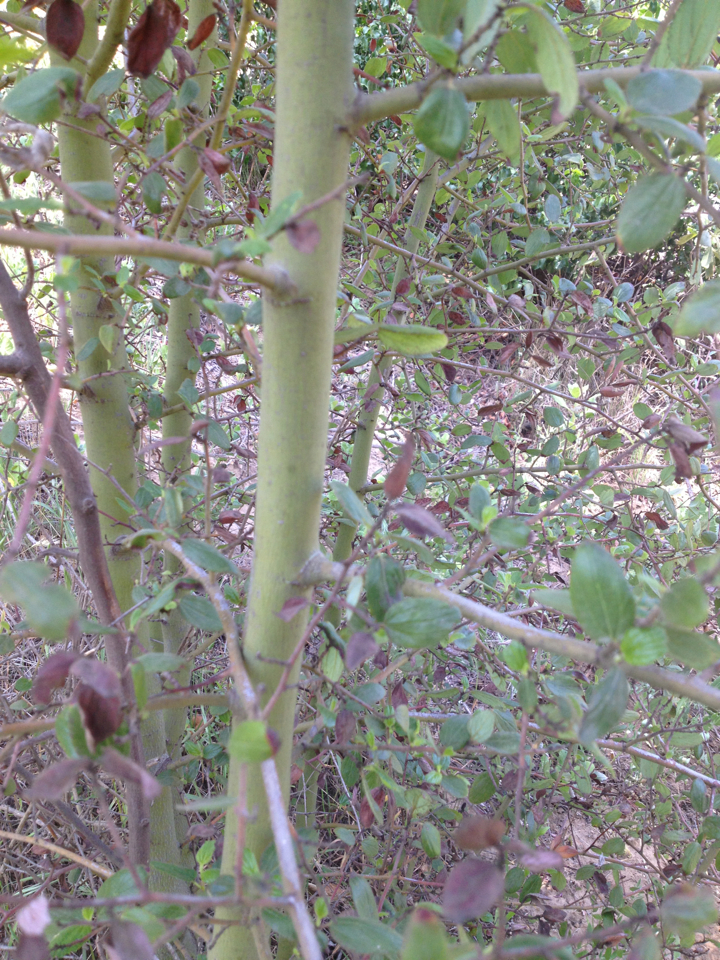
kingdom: Plantae
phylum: Tracheophyta
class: Magnoliopsida
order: Rosales
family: Rhamnaceae
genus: Ceanothus
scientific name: Ceanothus oliganthus
